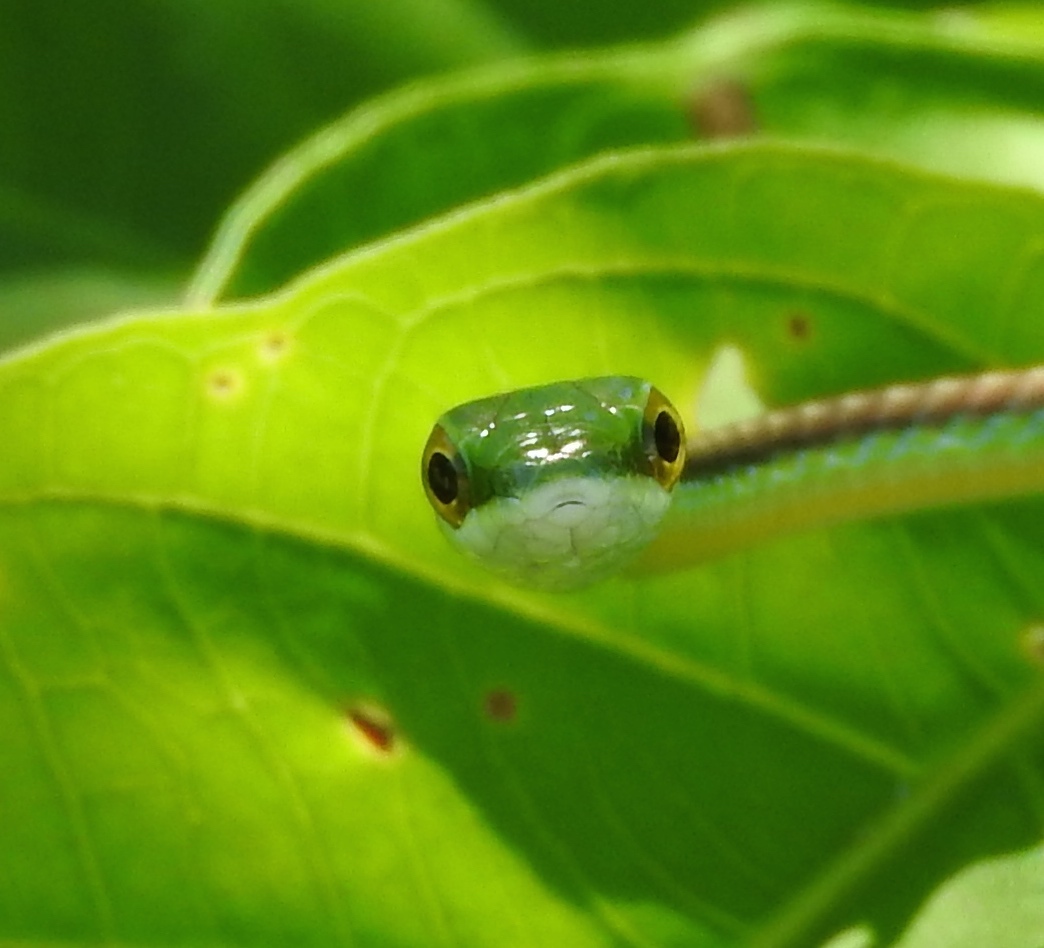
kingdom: Animalia
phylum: Chordata
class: Squamata
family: Colubridae
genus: Leptophis
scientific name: Leptophis diplotropis
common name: Pacific coast parrot snake
